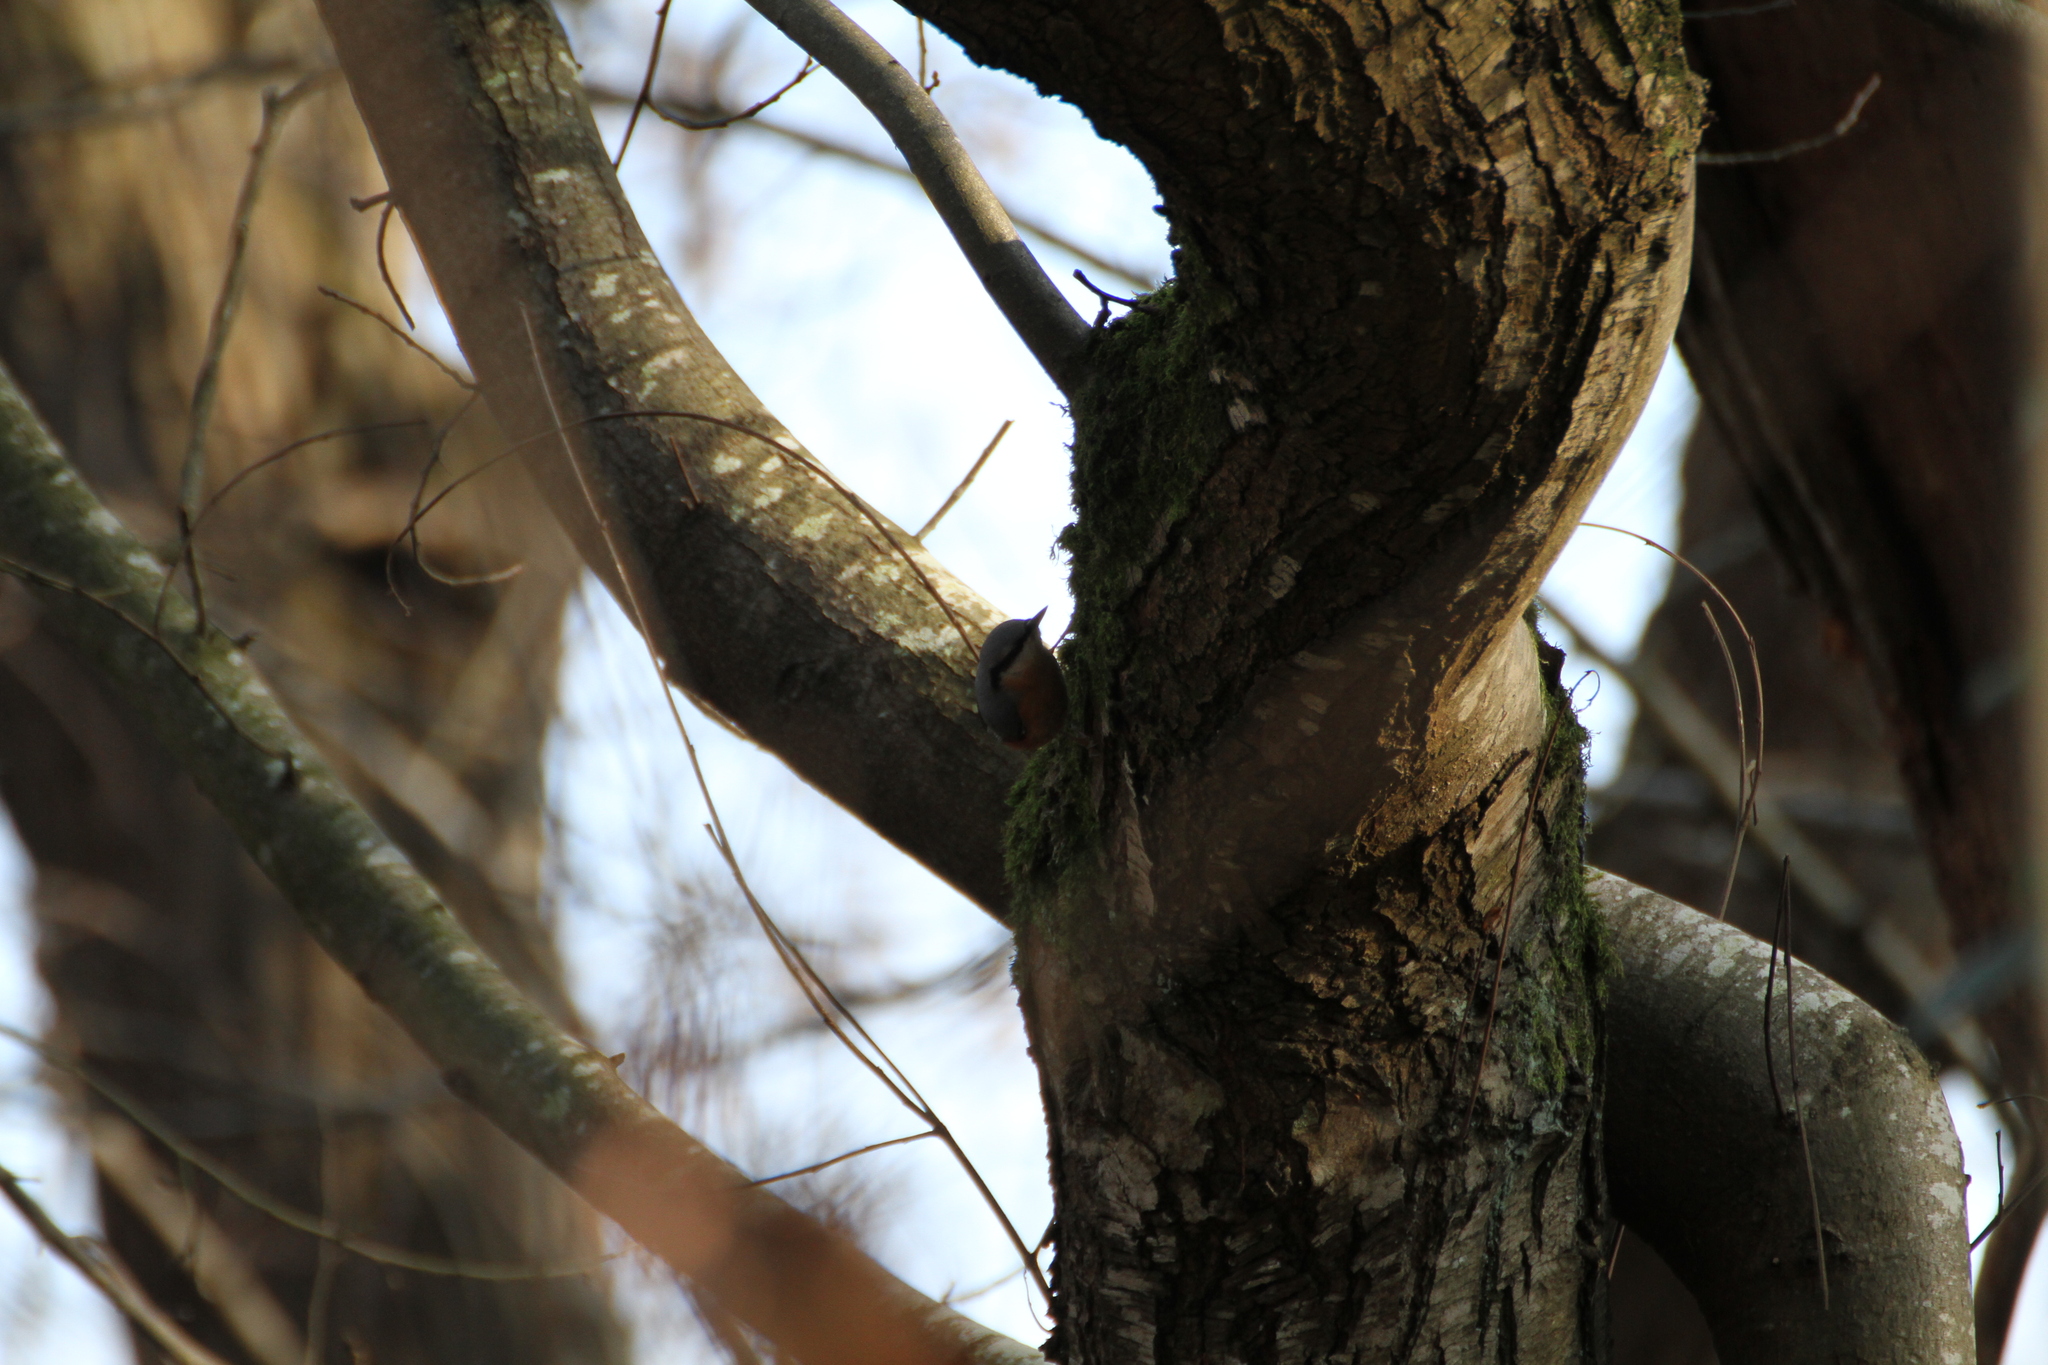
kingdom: Animalia
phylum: Chordata
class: Aves
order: Passeriformes
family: Sittidae
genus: Sitta
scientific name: Sitta europaea
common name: Eurasian nuthatch
